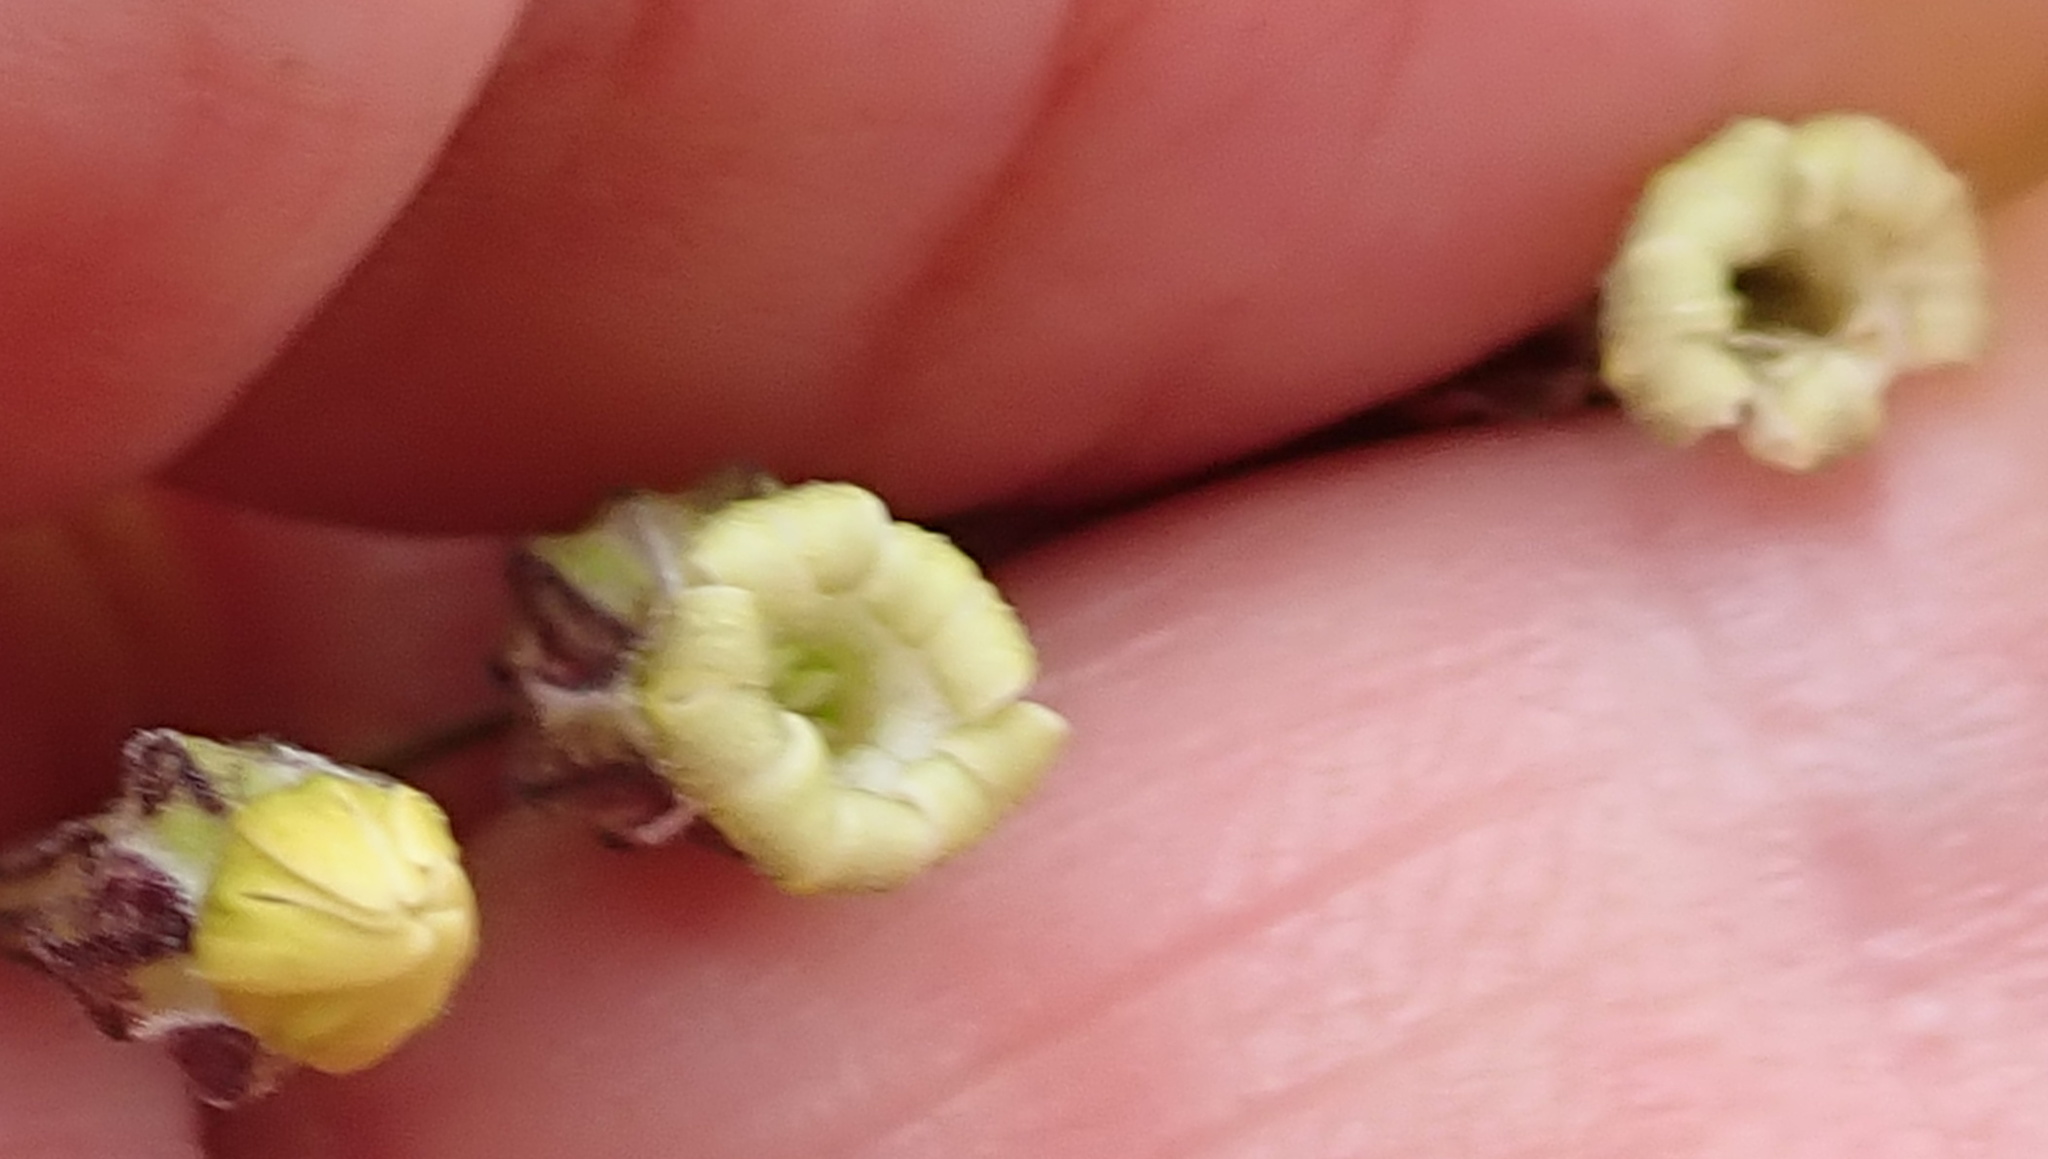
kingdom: Plantae
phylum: Tracheophyta
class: Magnoliopsida
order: Caryophyllales
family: Caryophyllaceae
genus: Silene
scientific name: Silene burchellii
